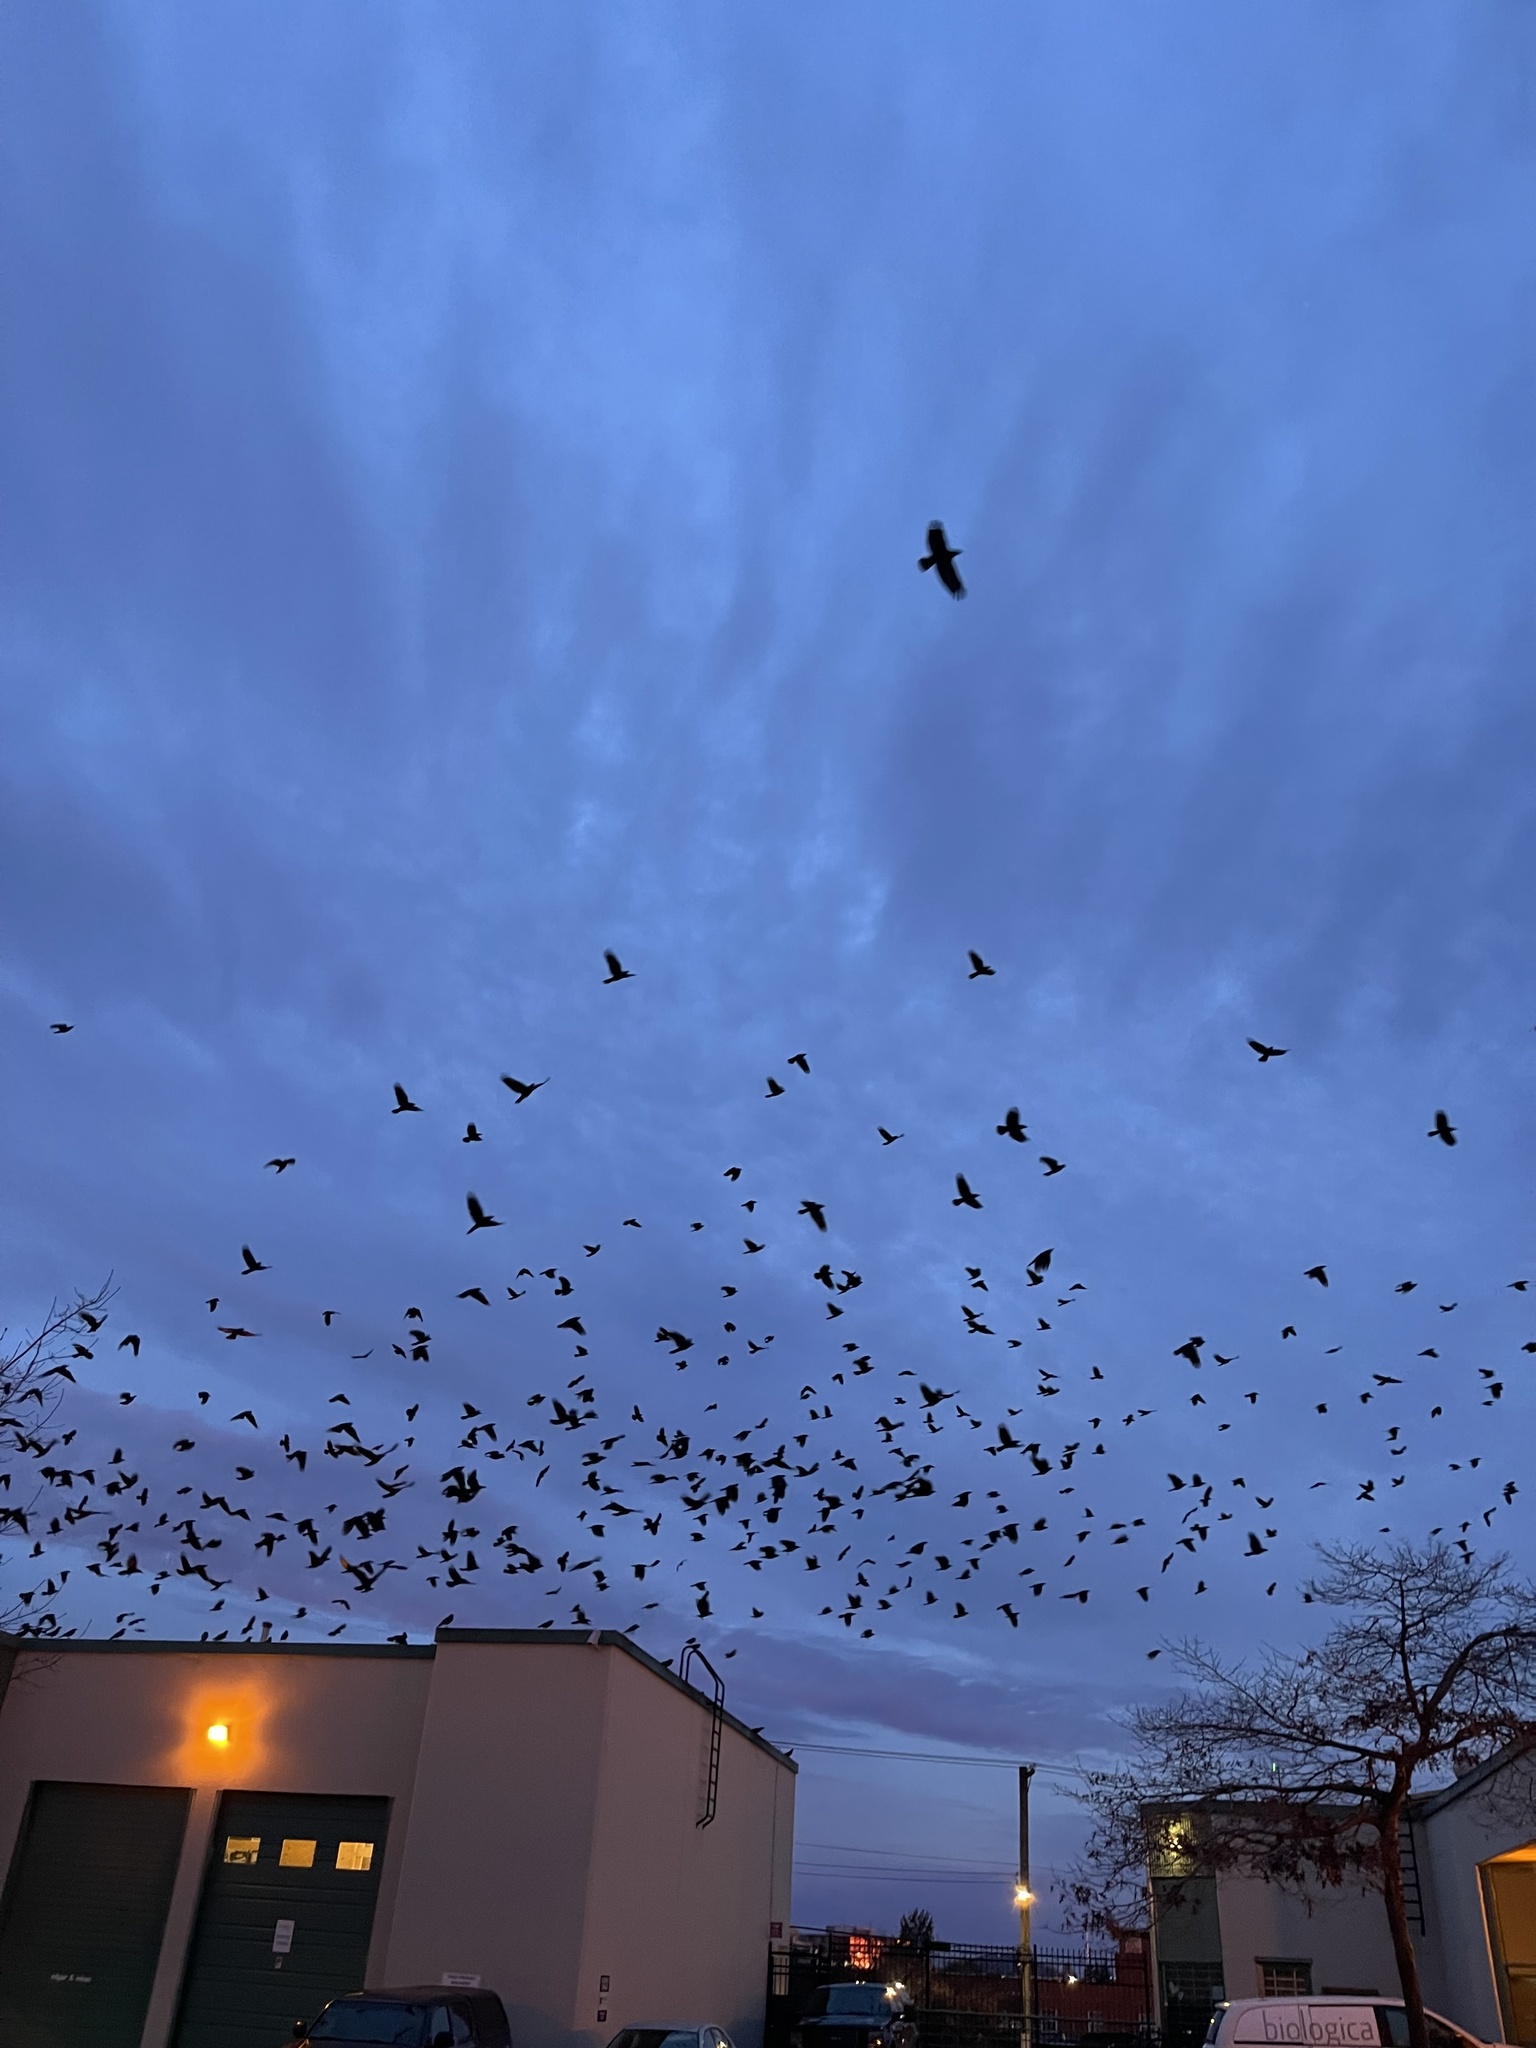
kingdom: Animalia
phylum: Chordata
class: Aves
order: Passeriformes
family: Corvidae
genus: Corvus
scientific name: Corvus brachyrhynchos
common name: American crow
